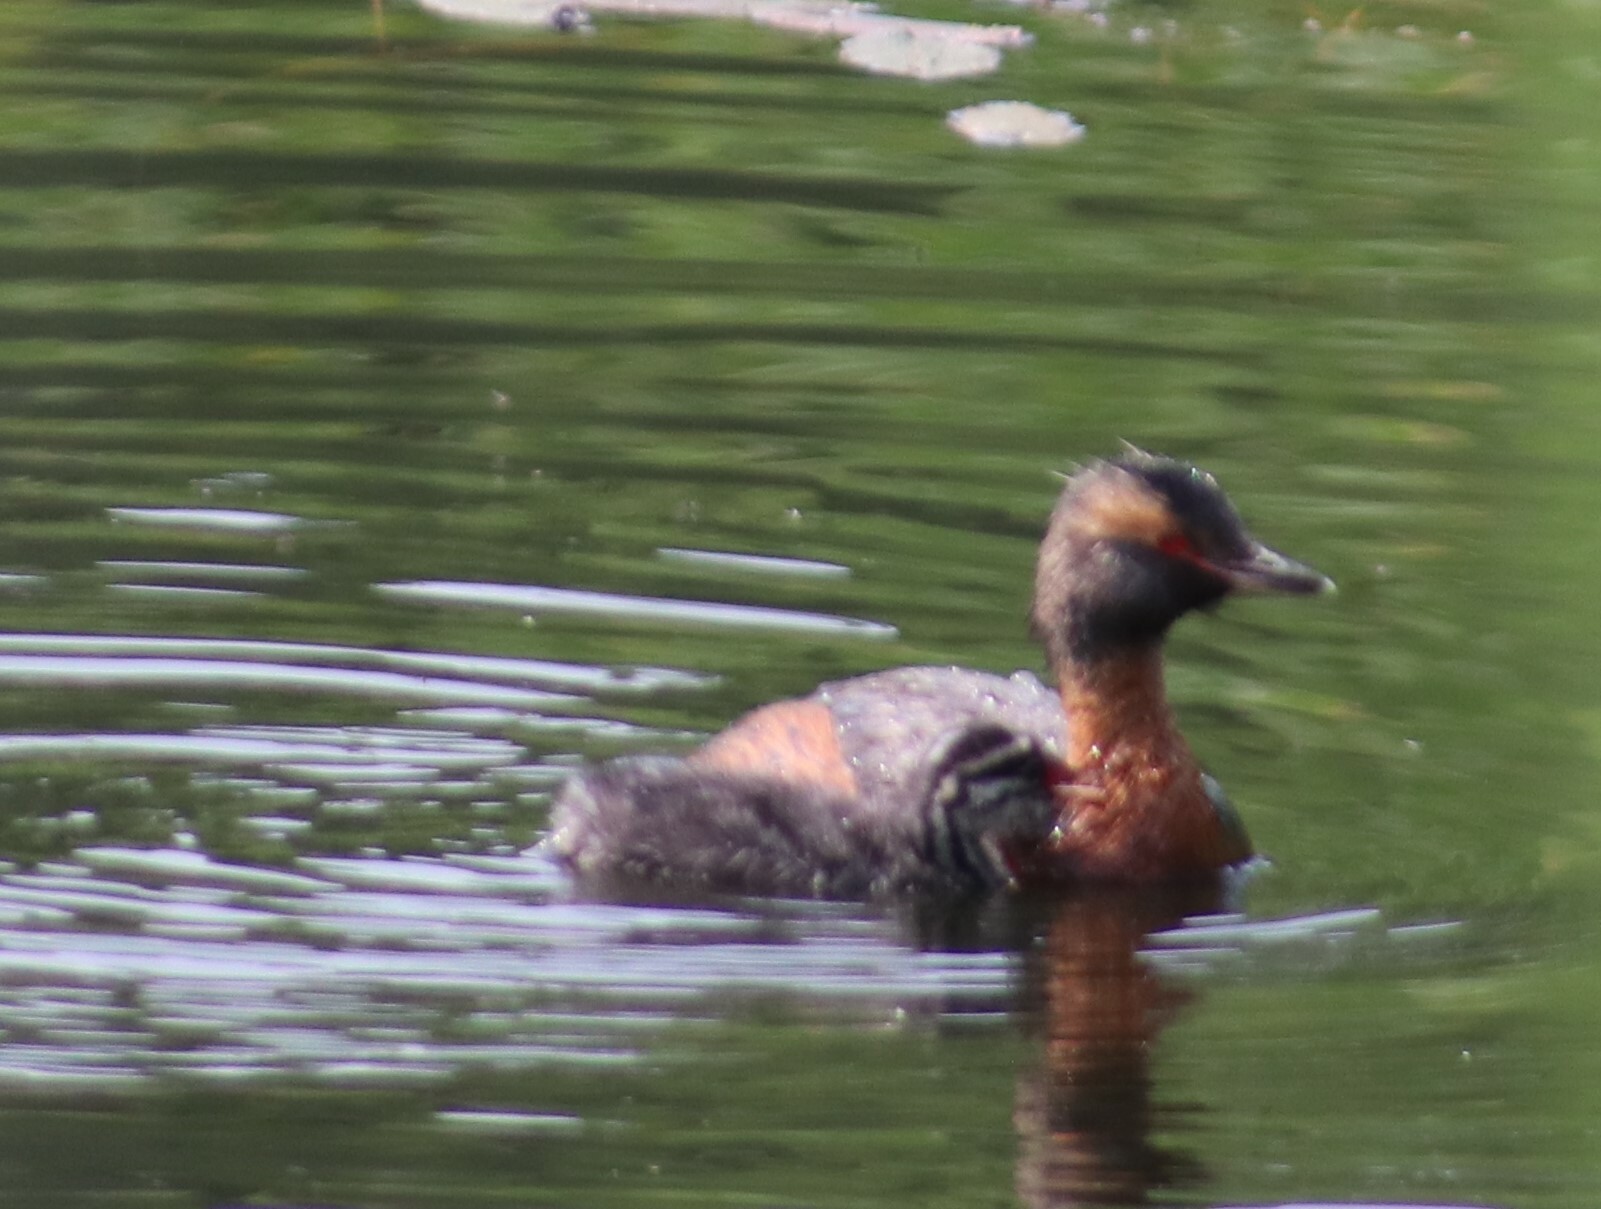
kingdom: Animalia
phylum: Chordata
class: Aves
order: Podicipediformes
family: Podicipedidae
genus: Podiceps
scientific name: Podiceps auritus
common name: Horned grebe
